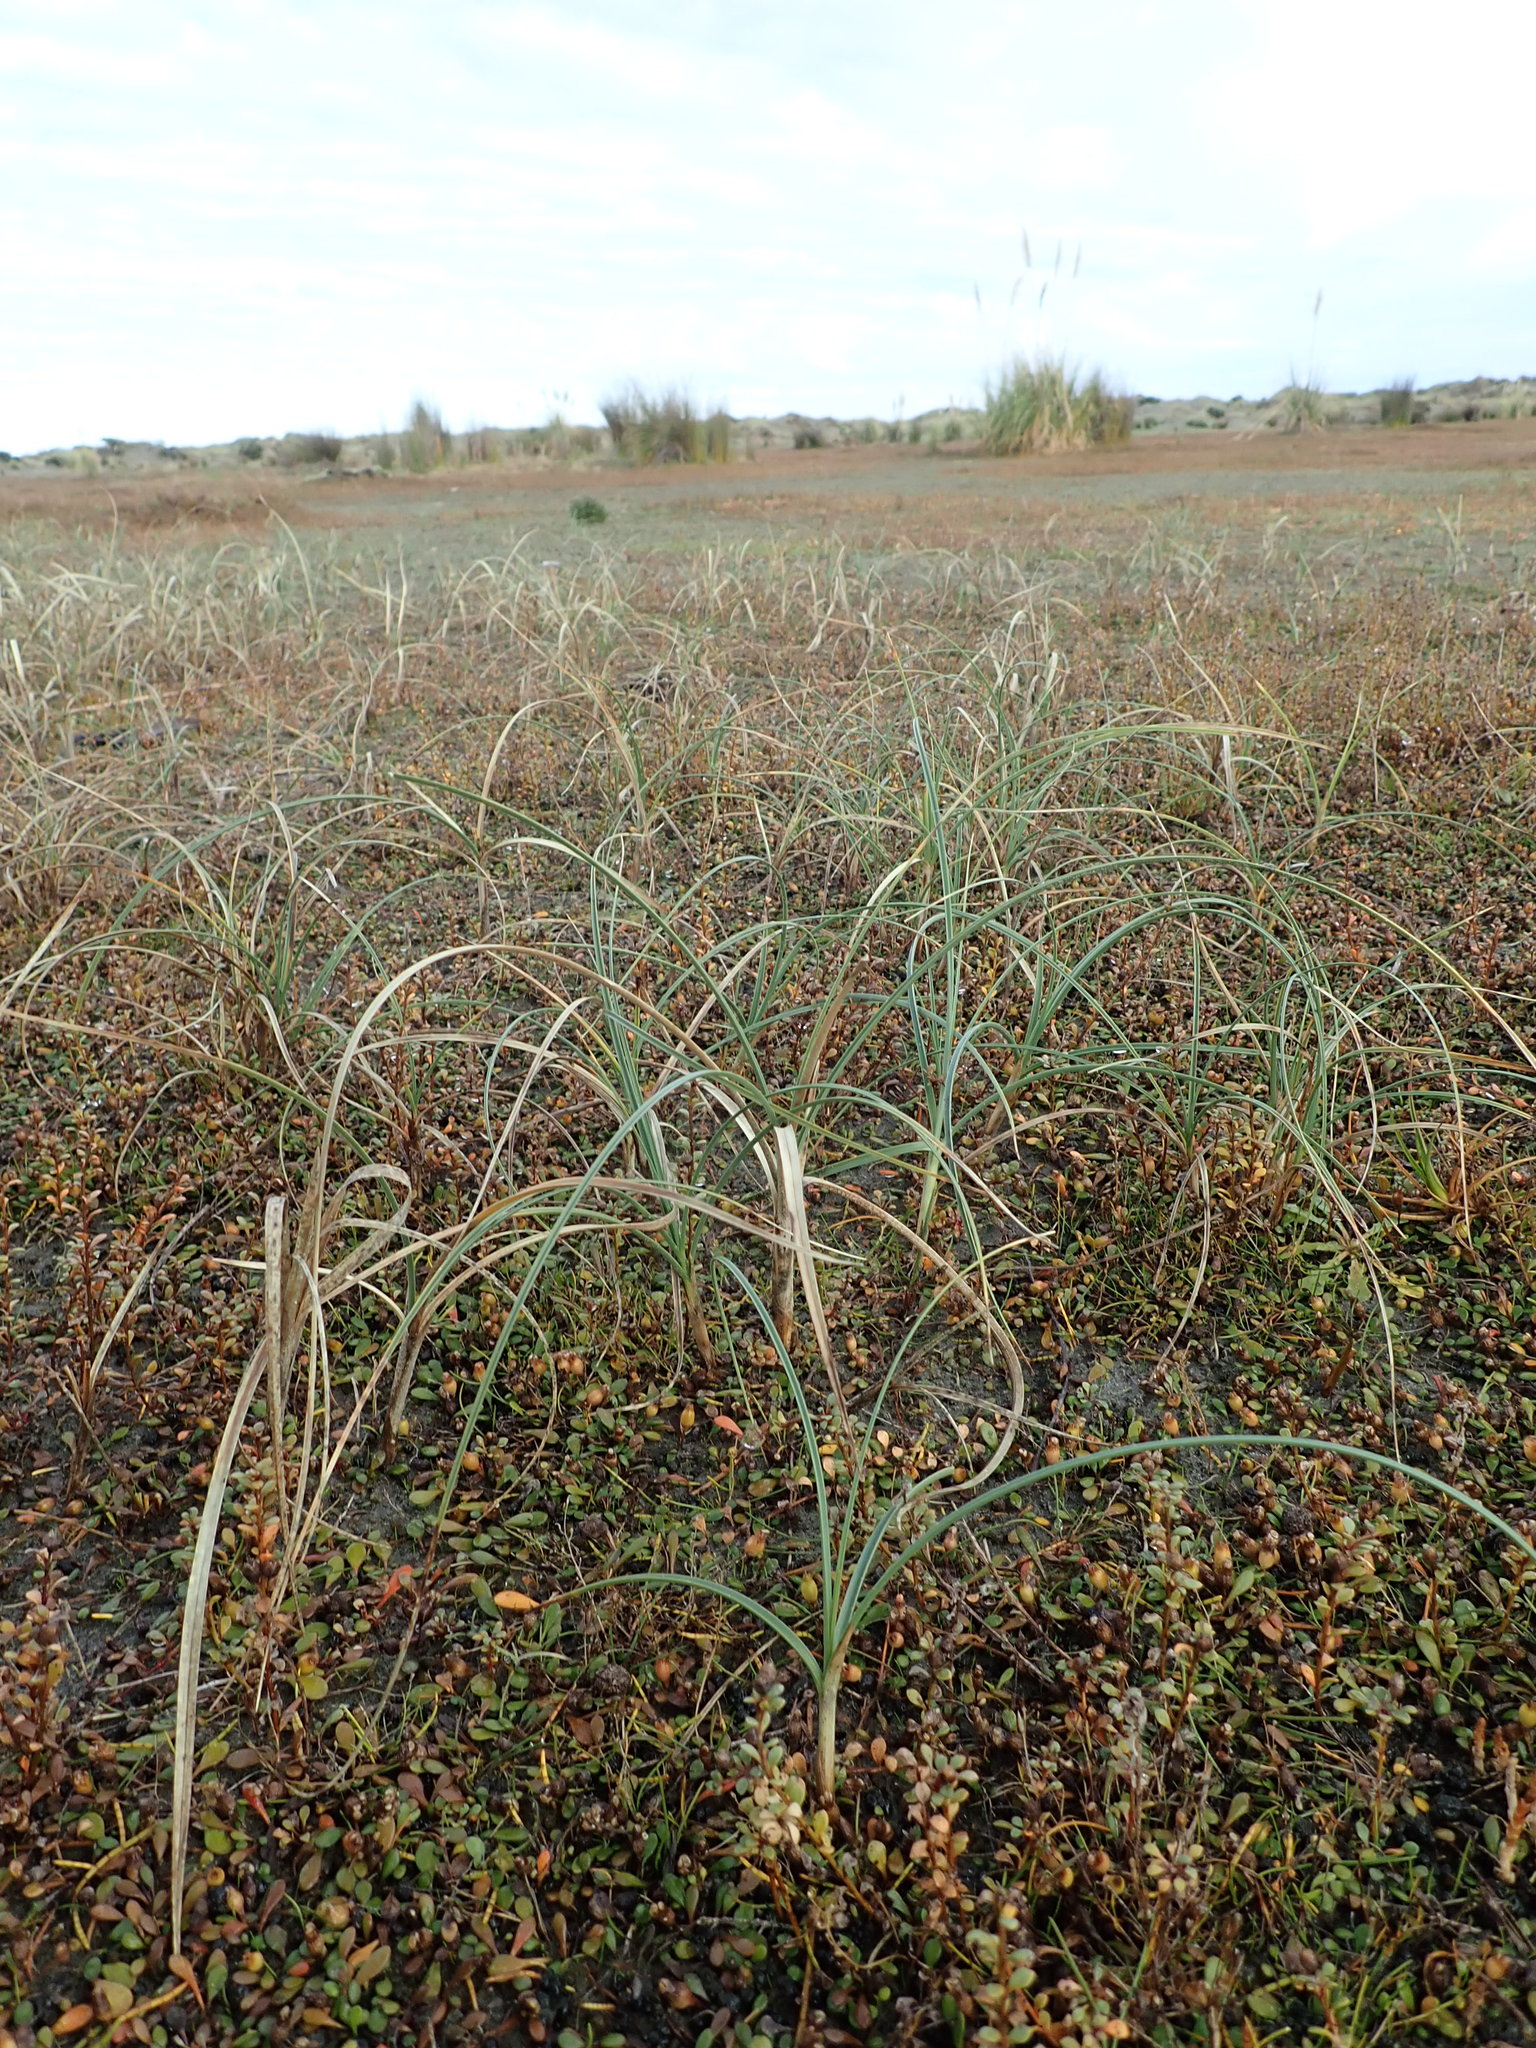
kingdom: Plantae
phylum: Tracheophyta
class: Liliopsida
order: Poales
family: Cyperaceae
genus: Carex
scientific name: Carex pumila
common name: Dwarf sedge
